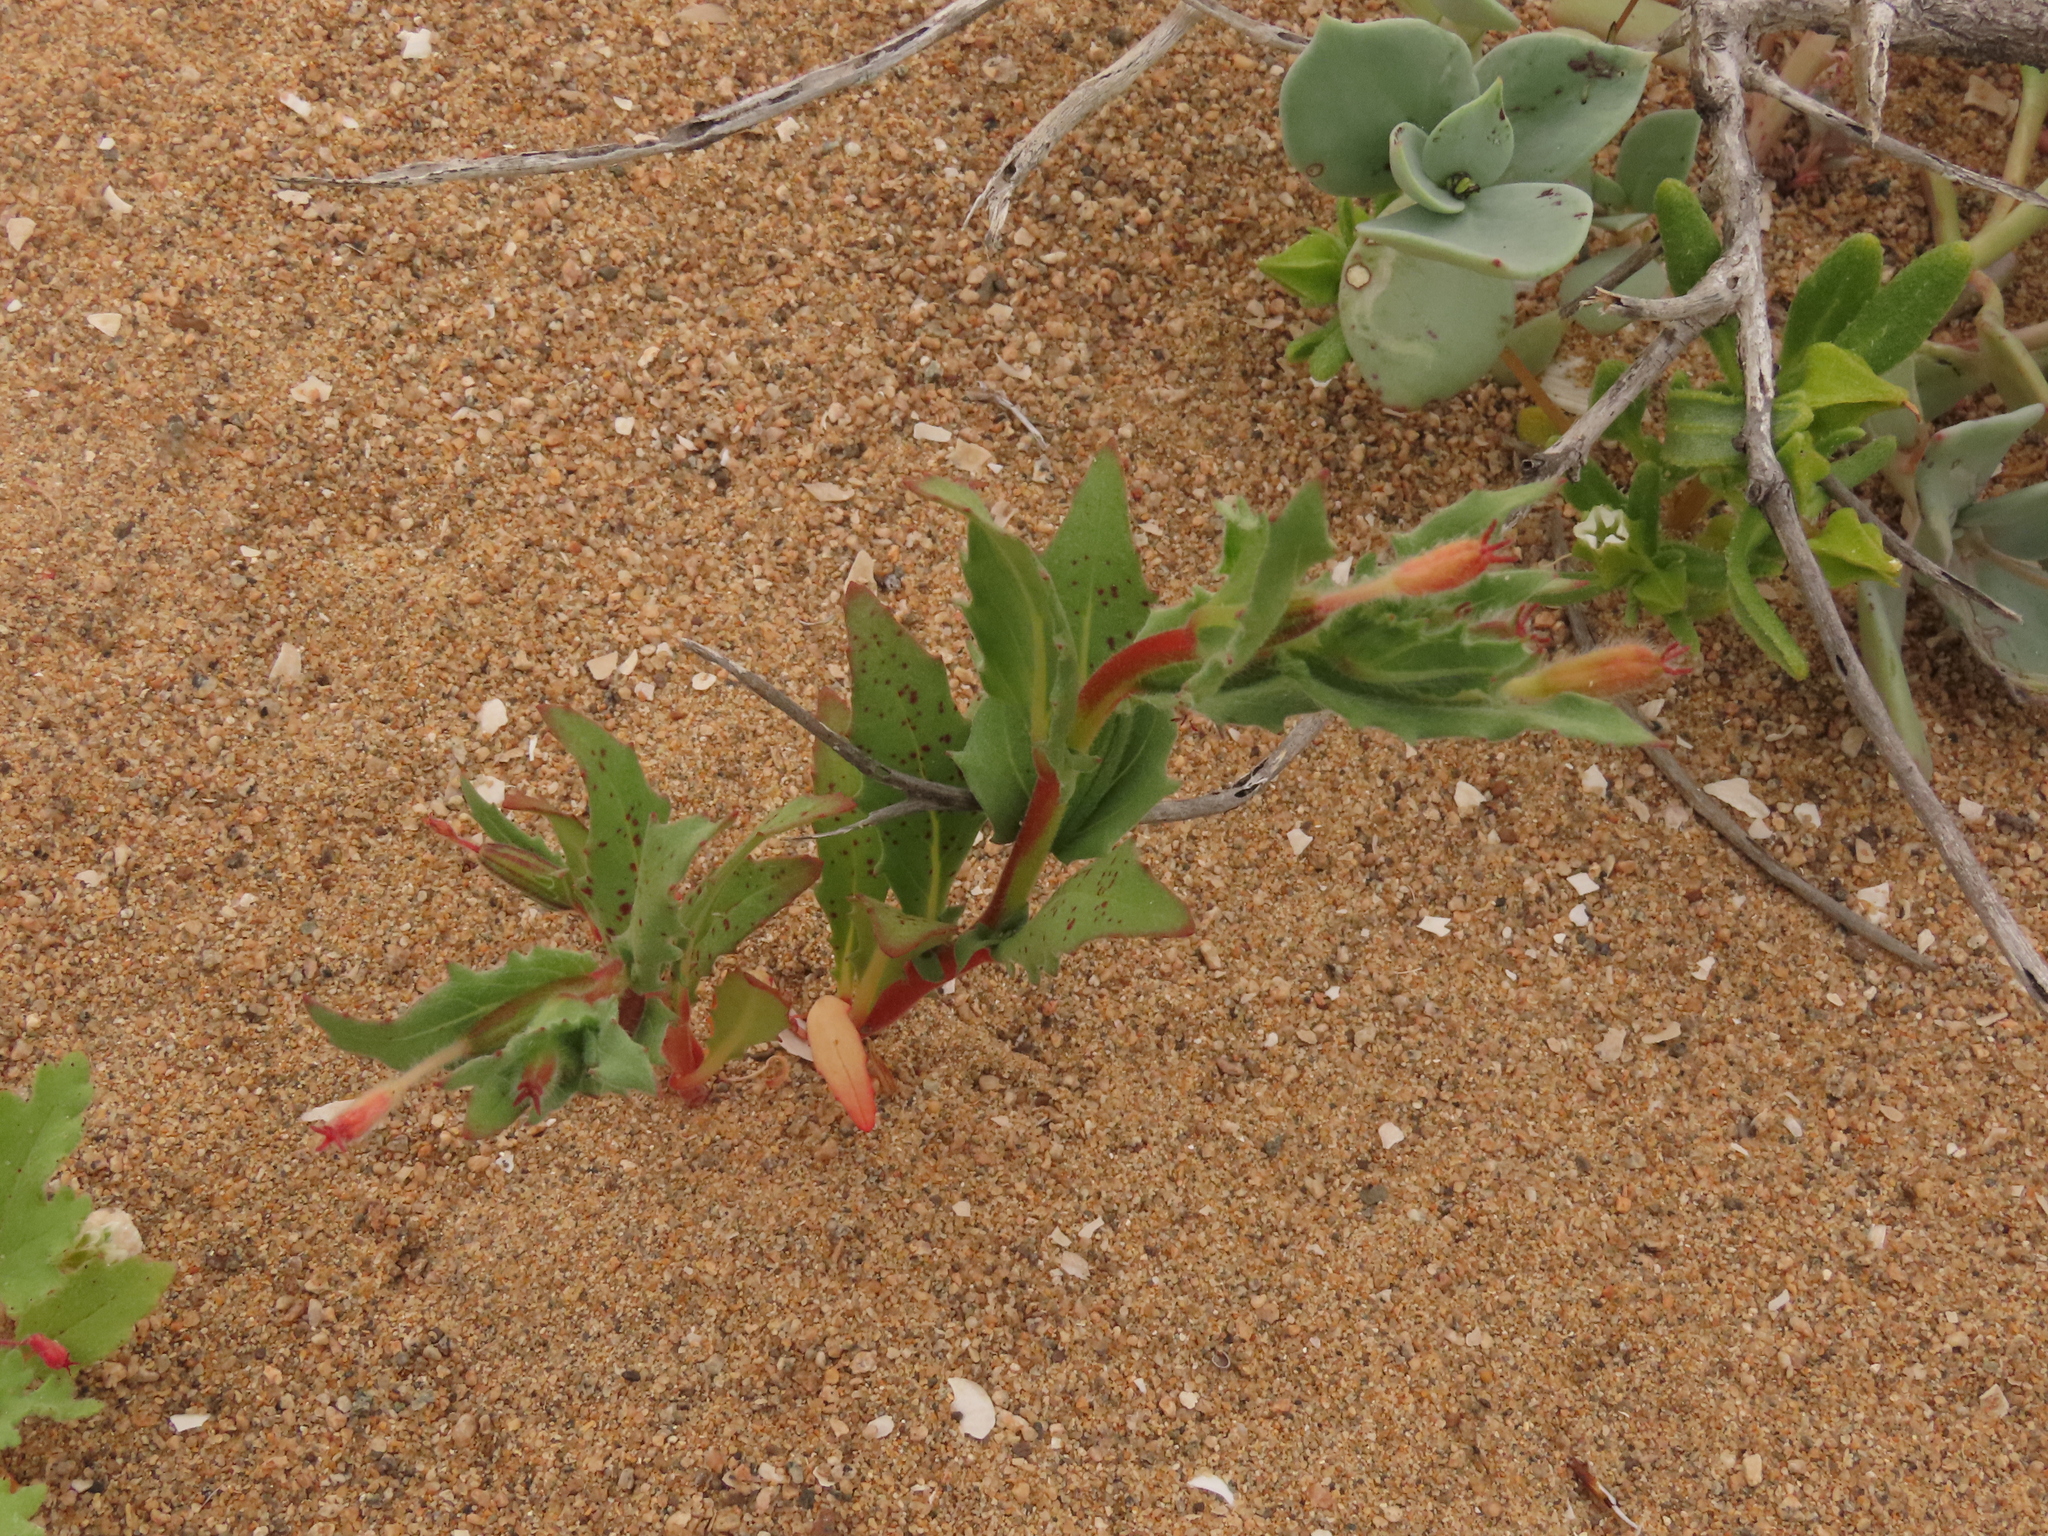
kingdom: Plantae
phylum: Tracheophyta
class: Magnoliopsida
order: Myrtales
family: Onagraceae
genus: Oenothera
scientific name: Oenothera coquimbensis
